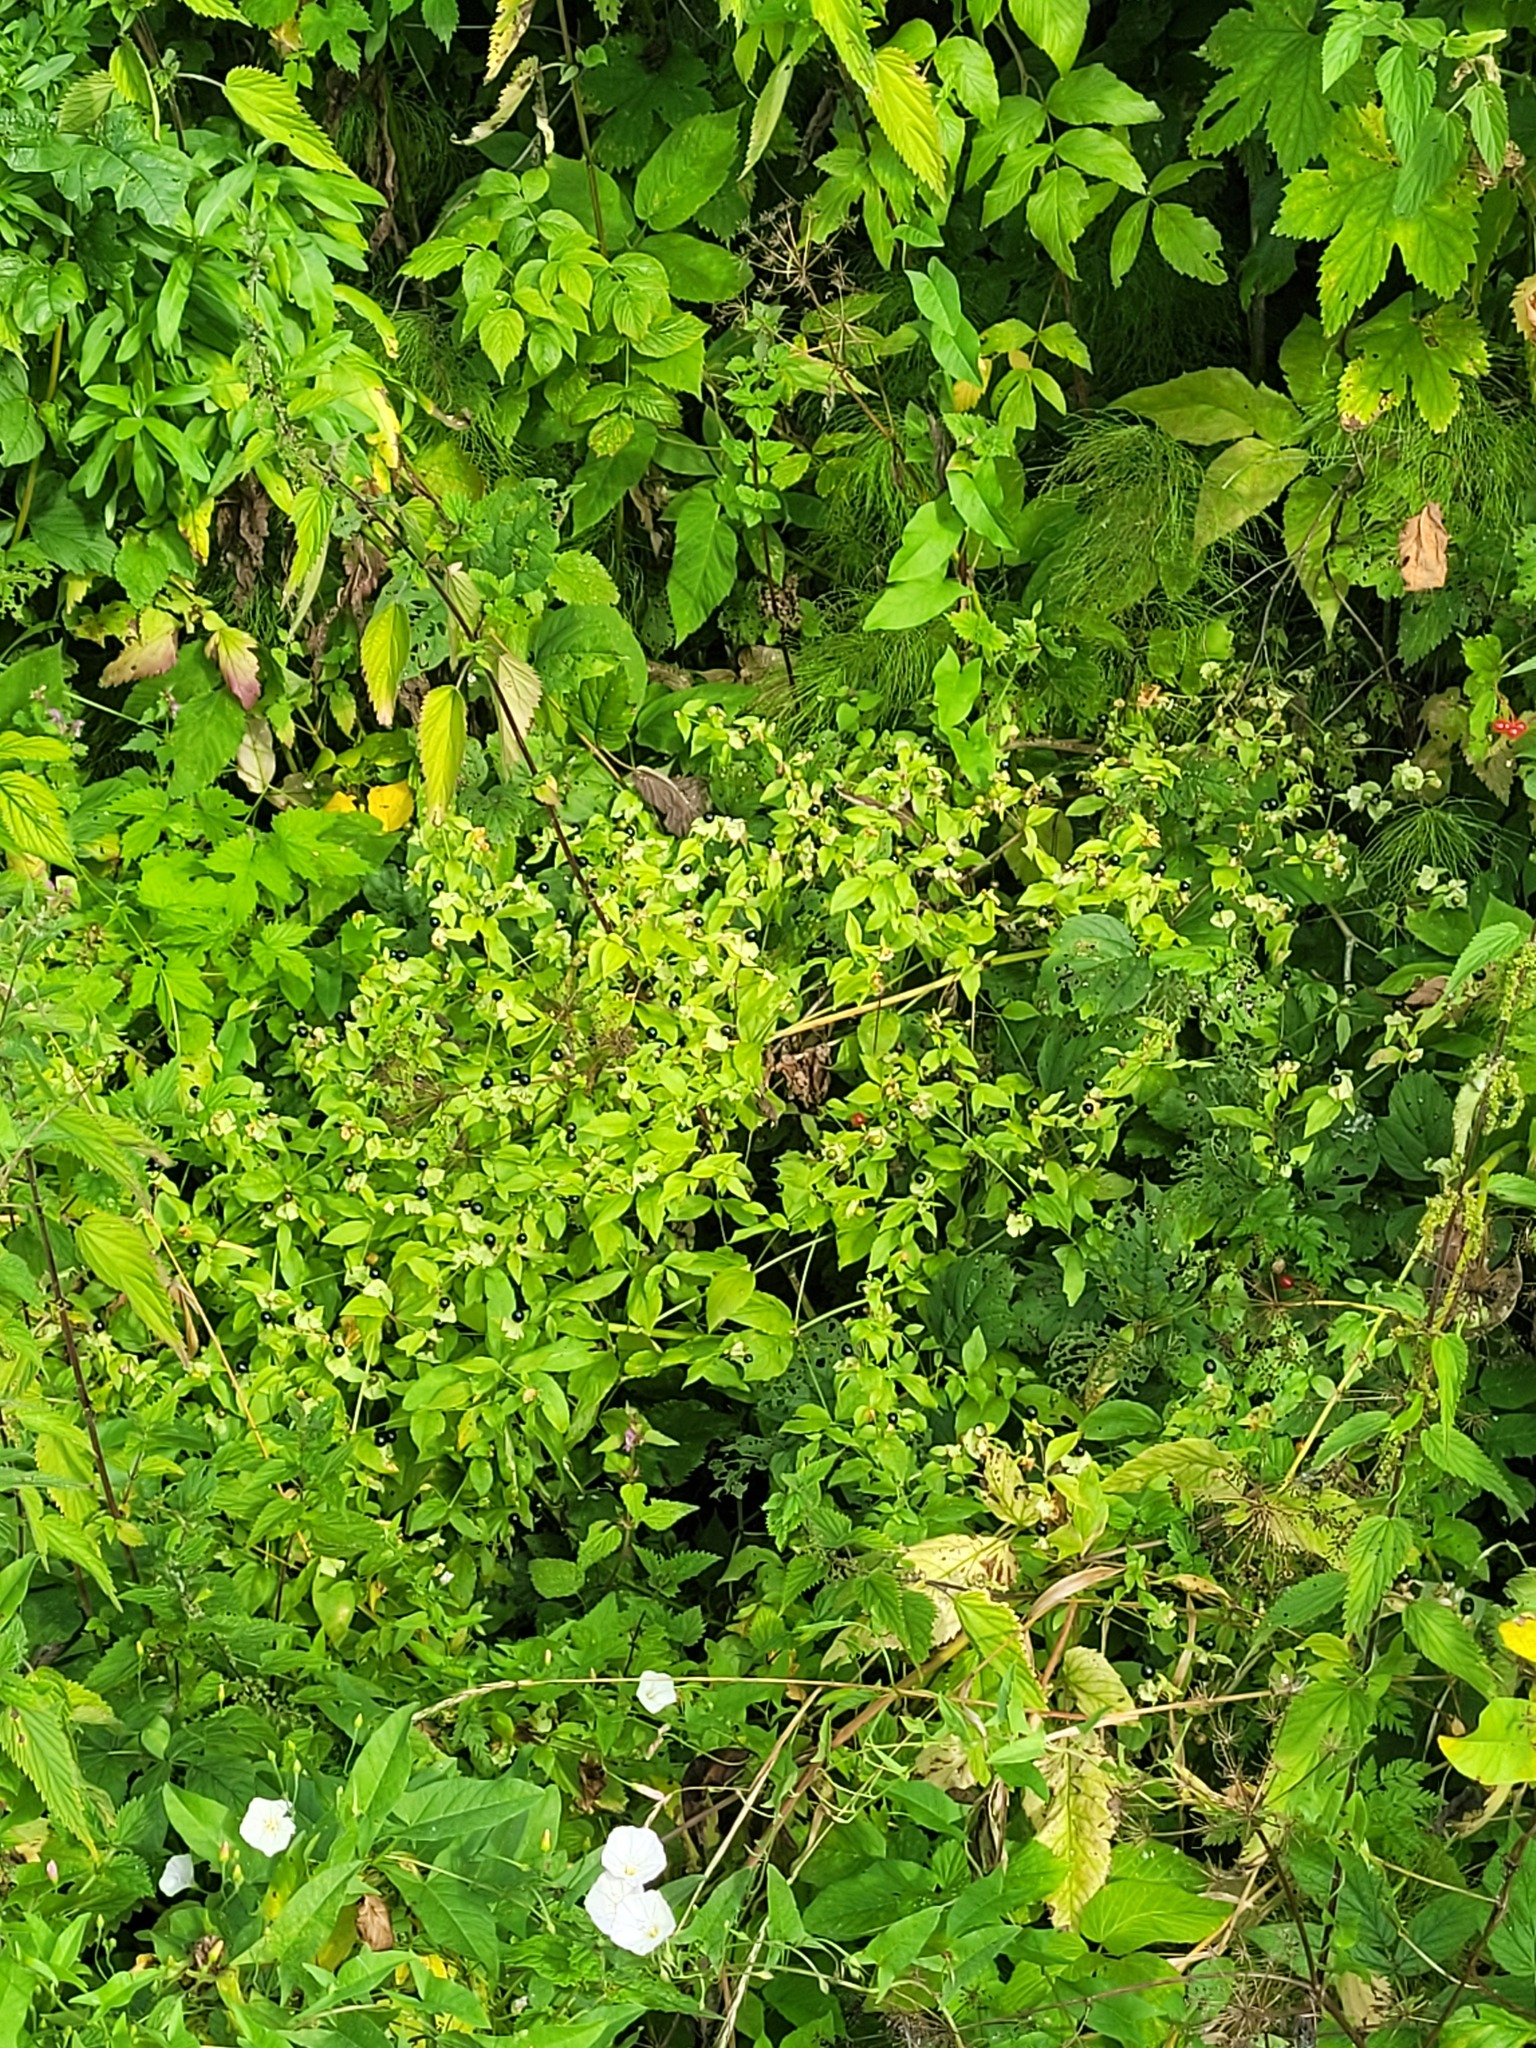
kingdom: Plantae
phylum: Tracheophyta
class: Magnoliopsida
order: Caryophyllales
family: Caryophyllaceae
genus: Silene
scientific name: Silene baccifera
